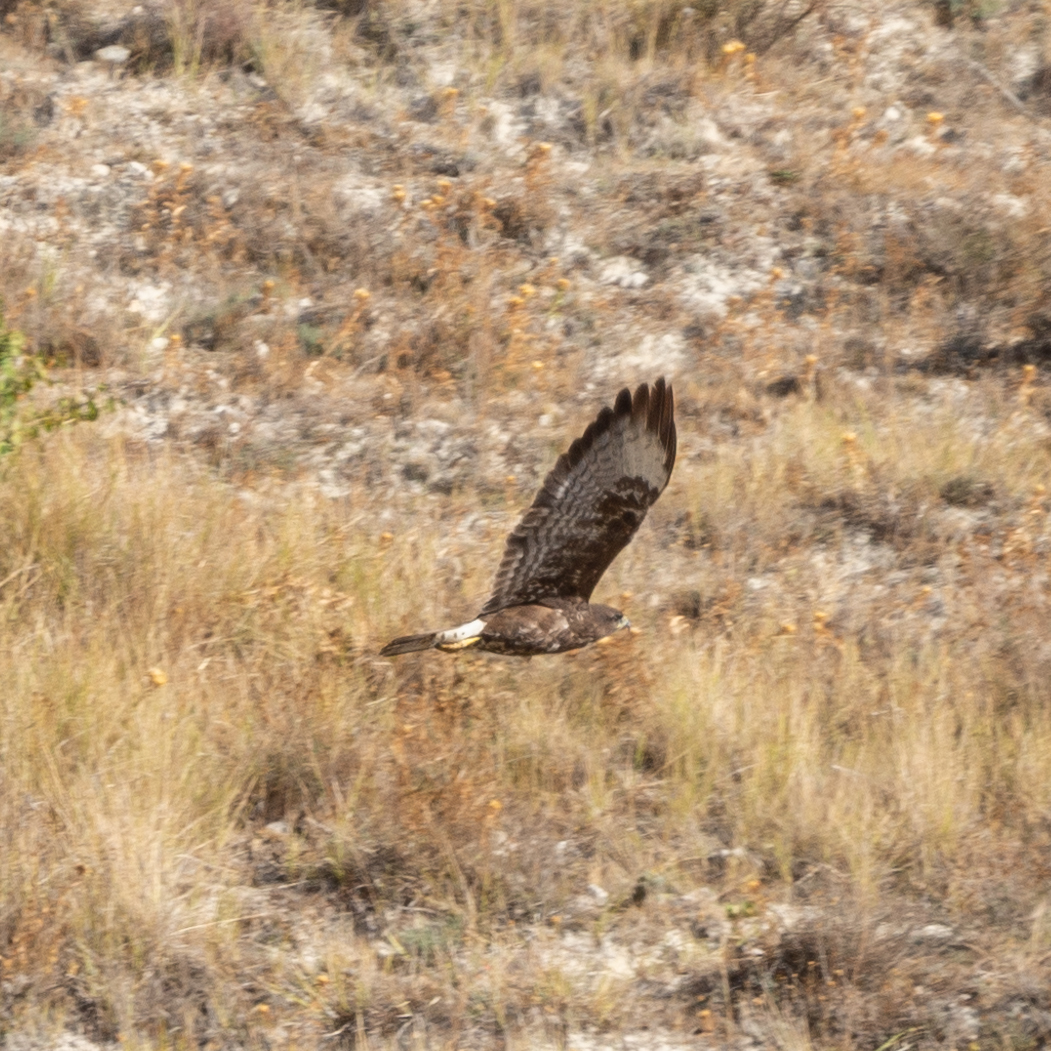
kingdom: Animalia
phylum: Chordata
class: Aves
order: Accipitriformes
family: Accipitridae
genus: Buteo
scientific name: Buteo buteo
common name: Common buzzard
